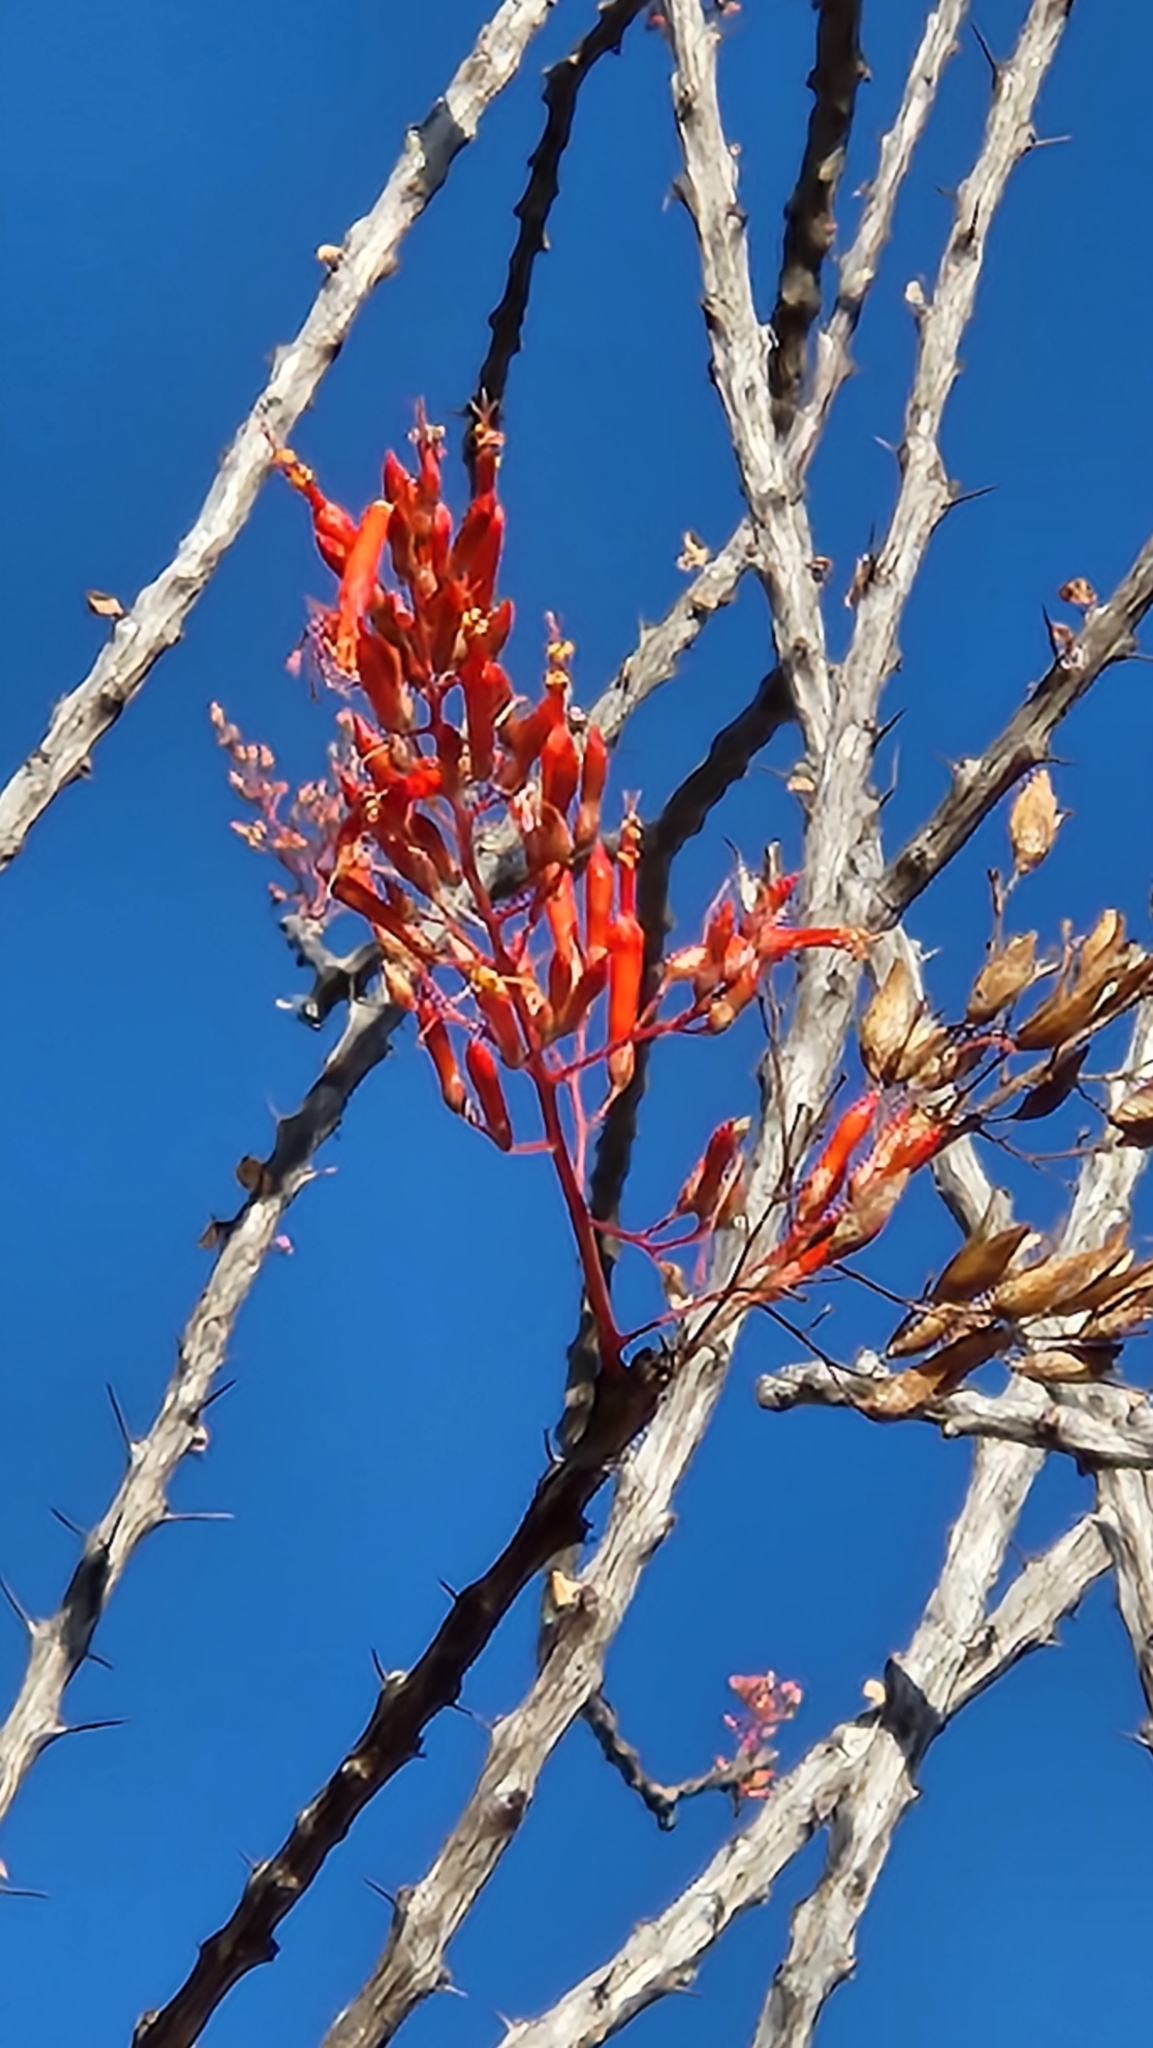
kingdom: Plantae
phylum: Tracheophyta
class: Magnoliopsida
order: Ericales
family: Fouquieriaceae
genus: Fouquieria
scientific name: Fouquieria diguetii
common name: Adam's tree
